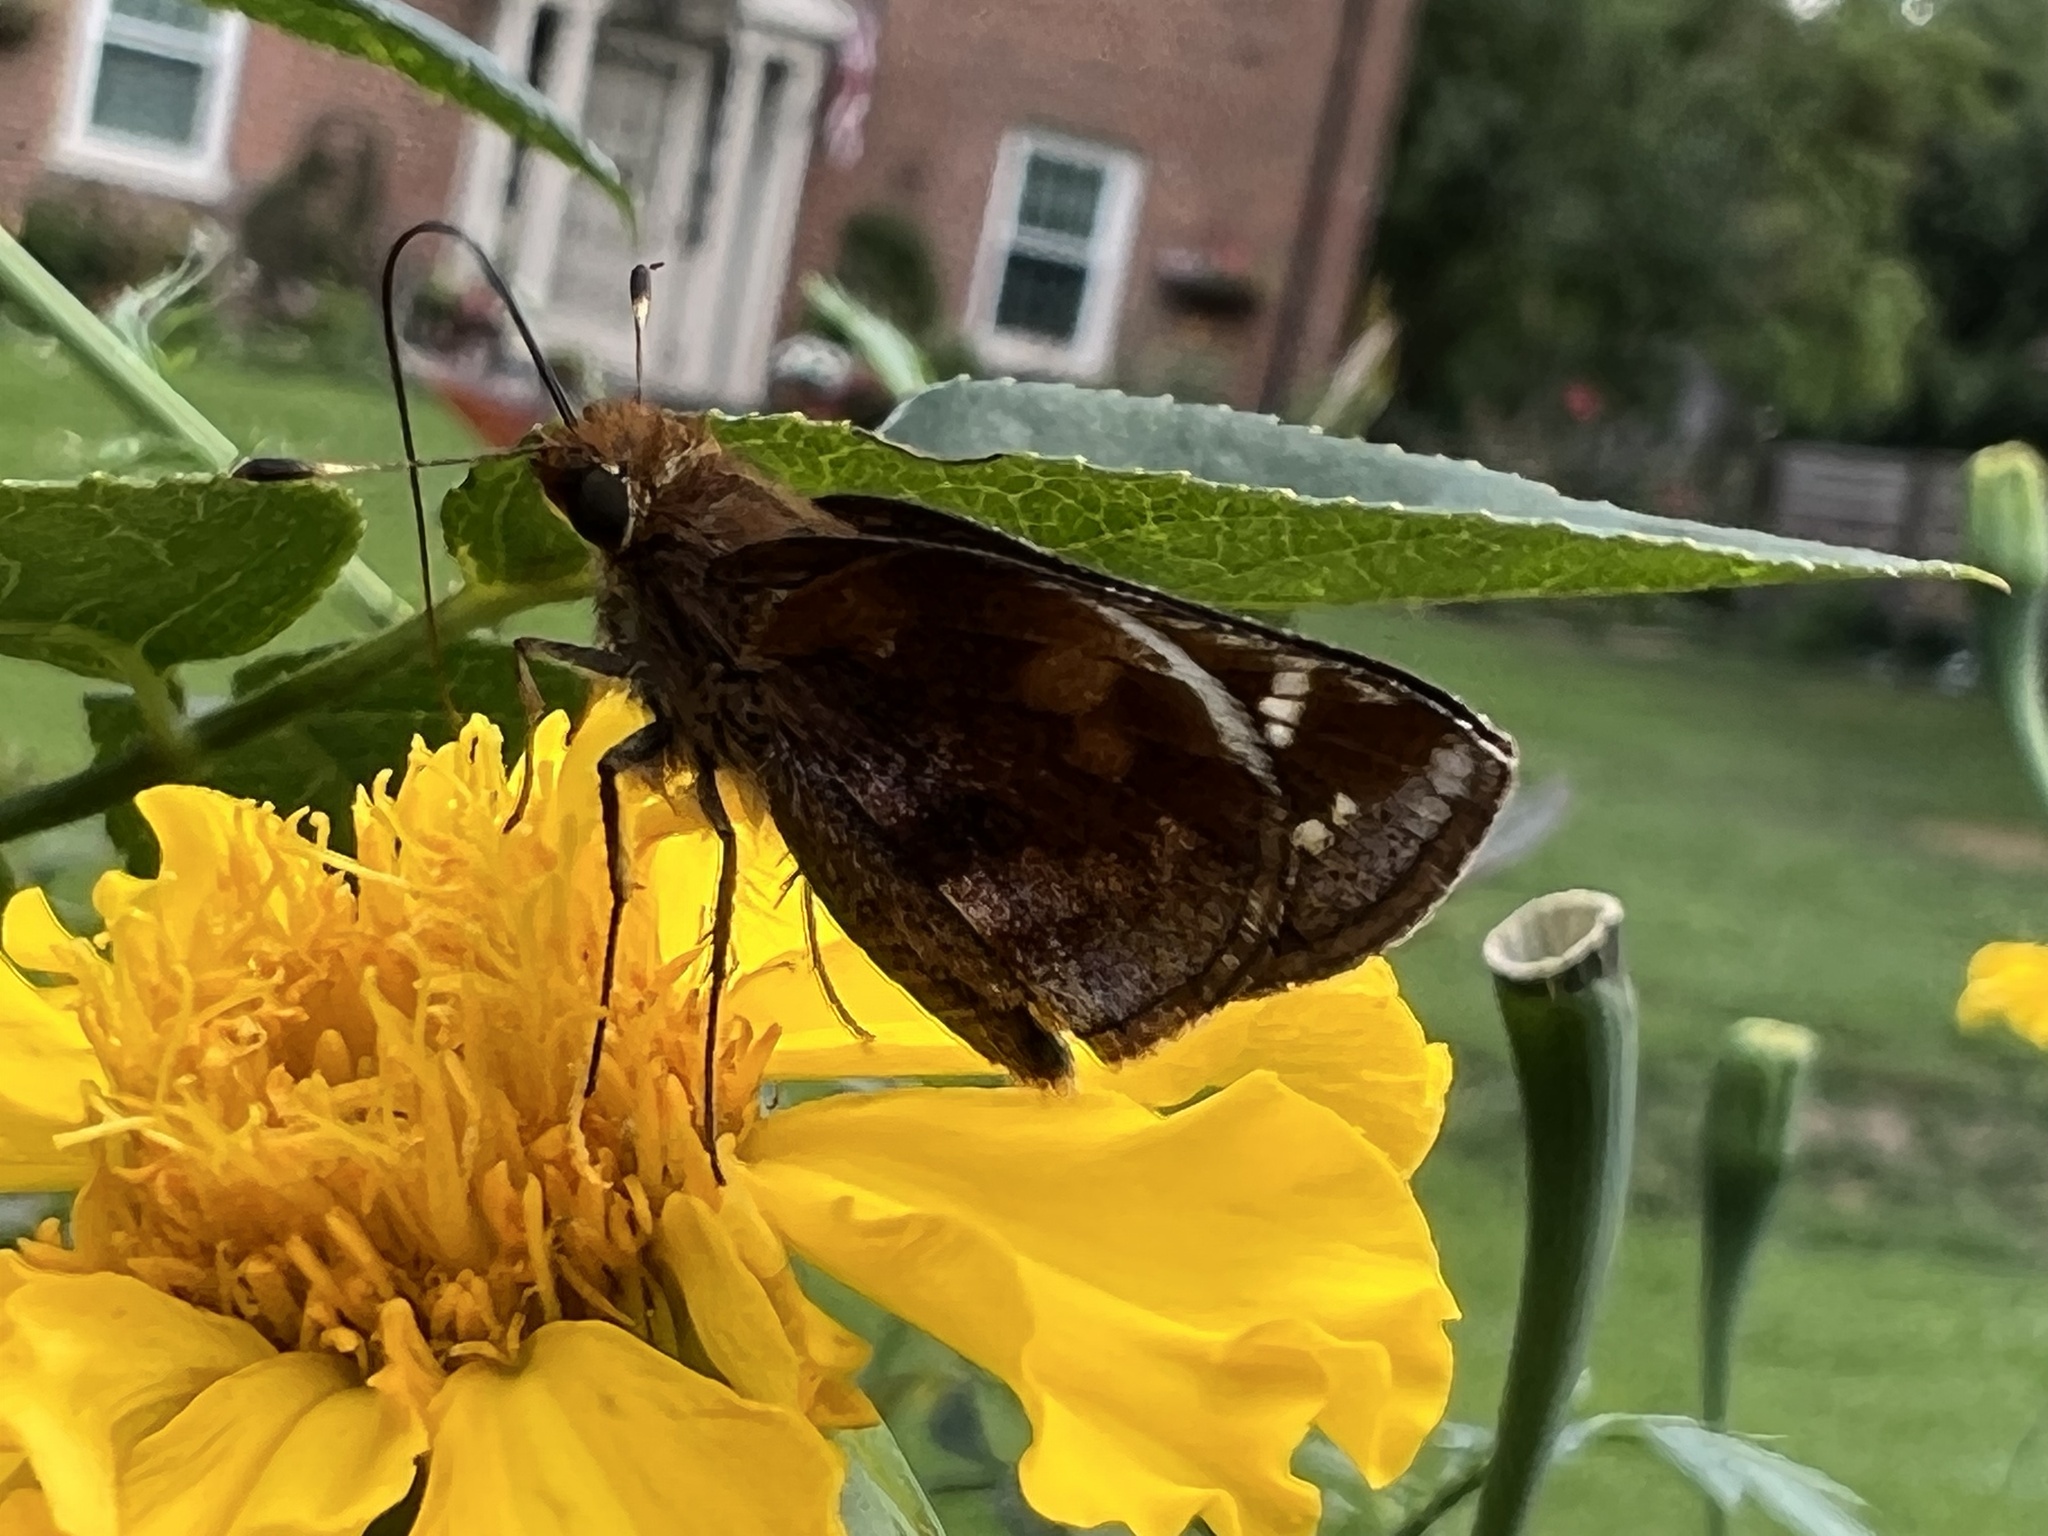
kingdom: Animalia
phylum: Arthropoda
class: Insecta
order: Lepidoptera
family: Hesperiidae
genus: Lon
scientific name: Lon zabulon
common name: Zabulon skipper
